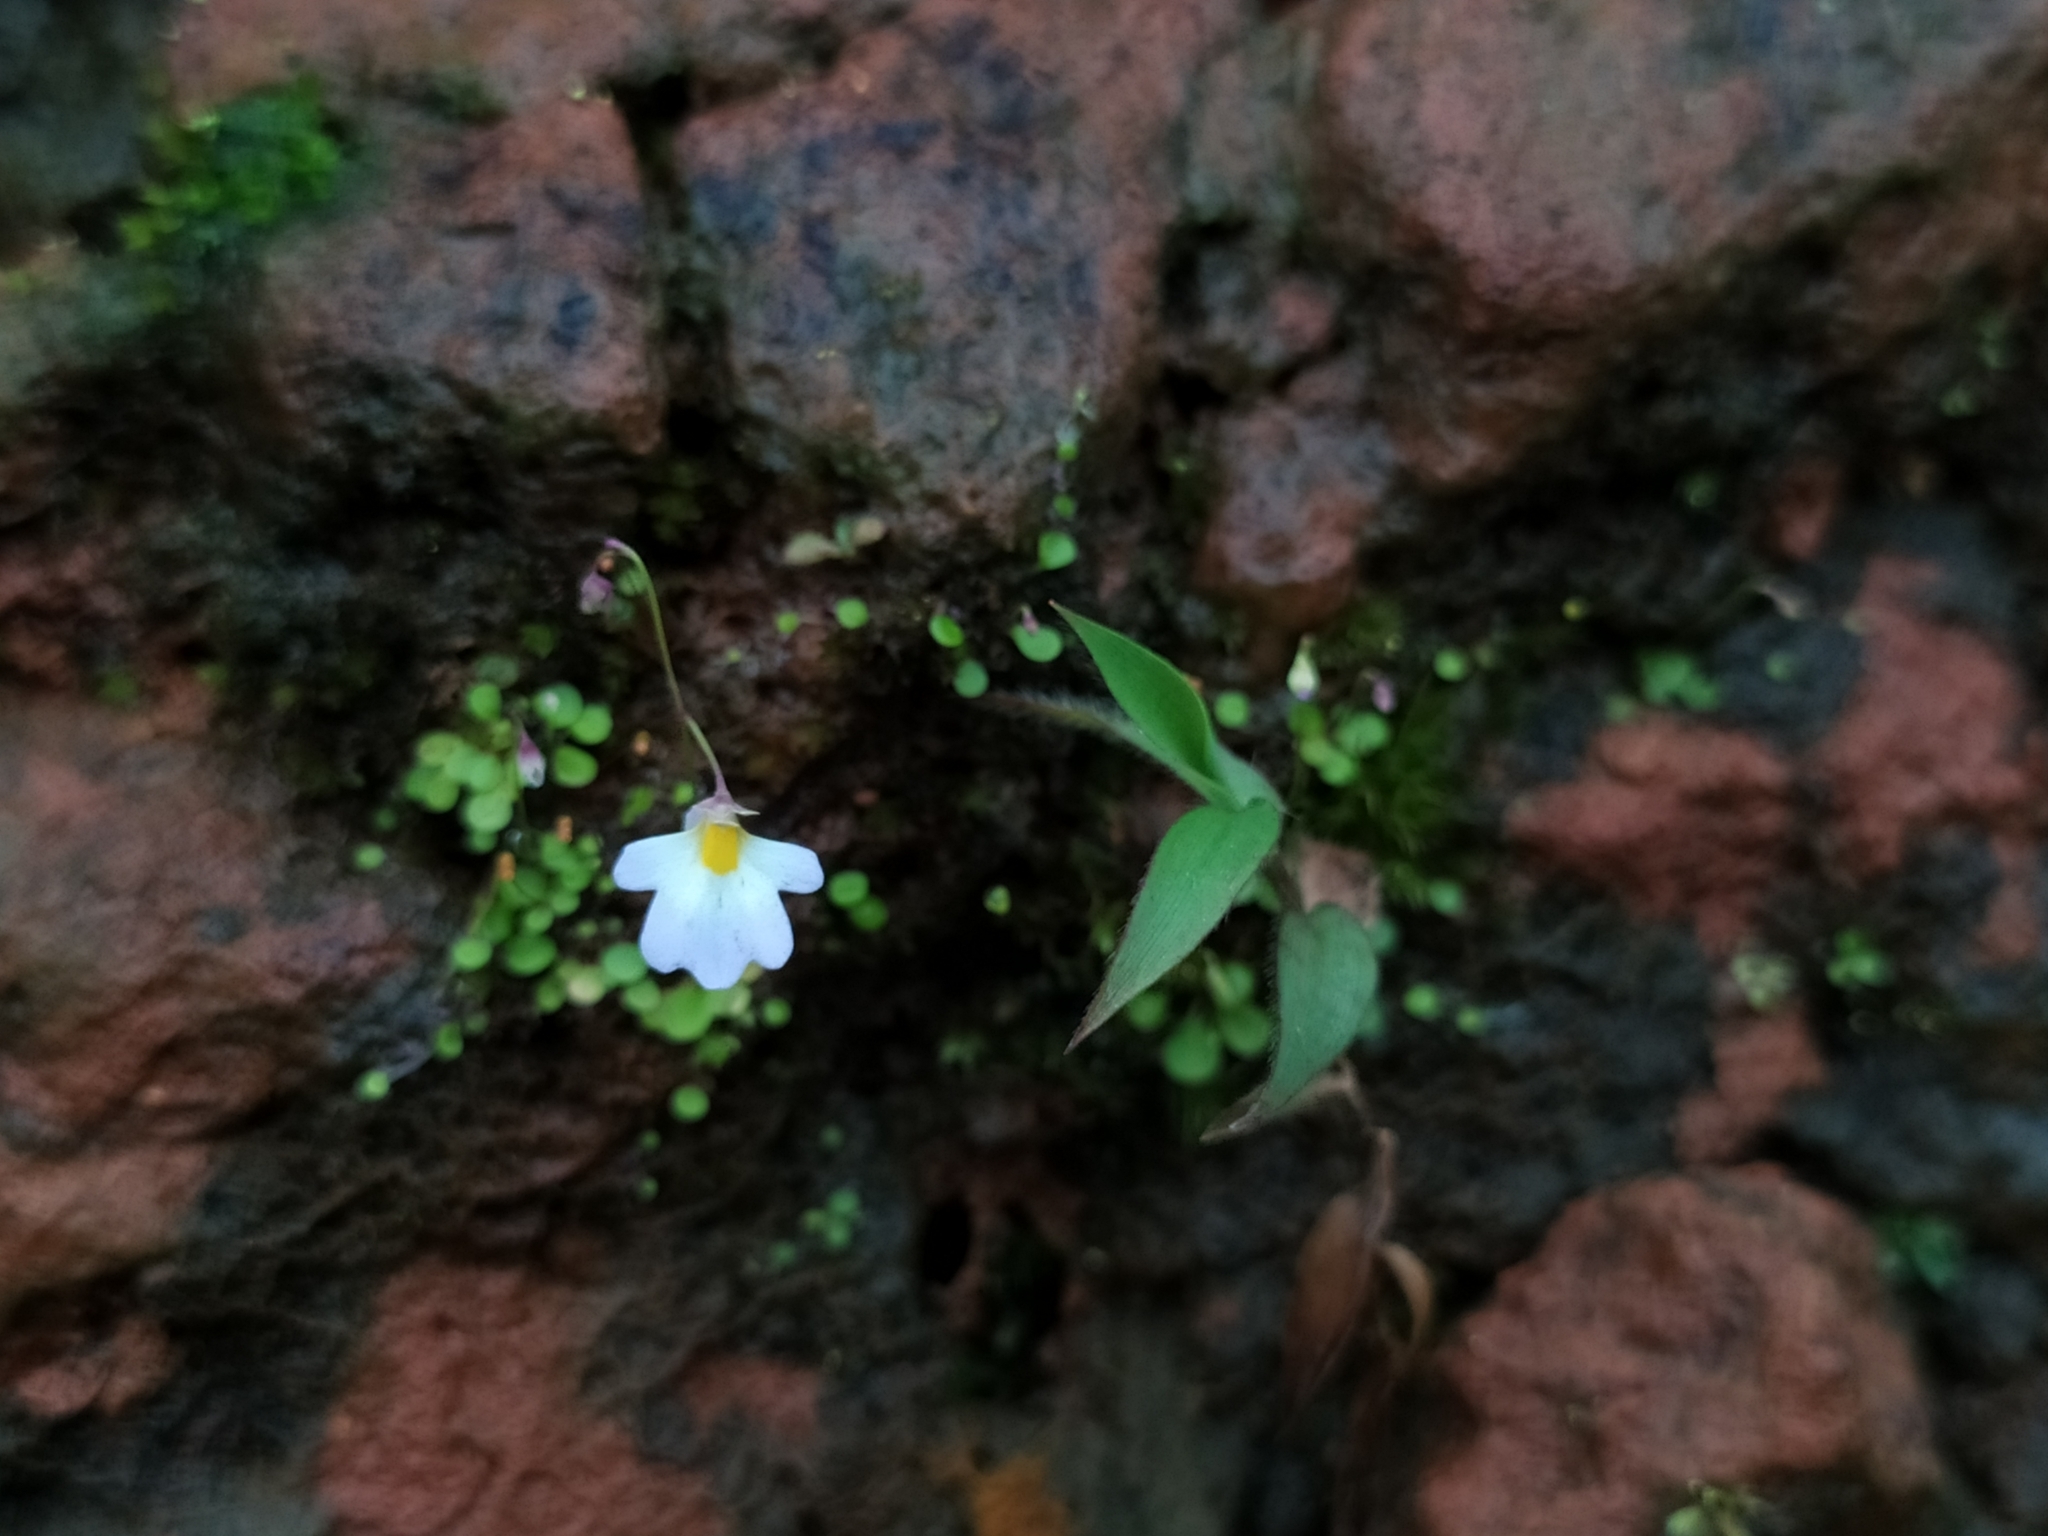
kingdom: Plantae
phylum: Tracheophyta
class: Magnoliopsida
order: Lamiales
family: Lentibulariaceae
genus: Utricularia
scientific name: Utricularia striatula
